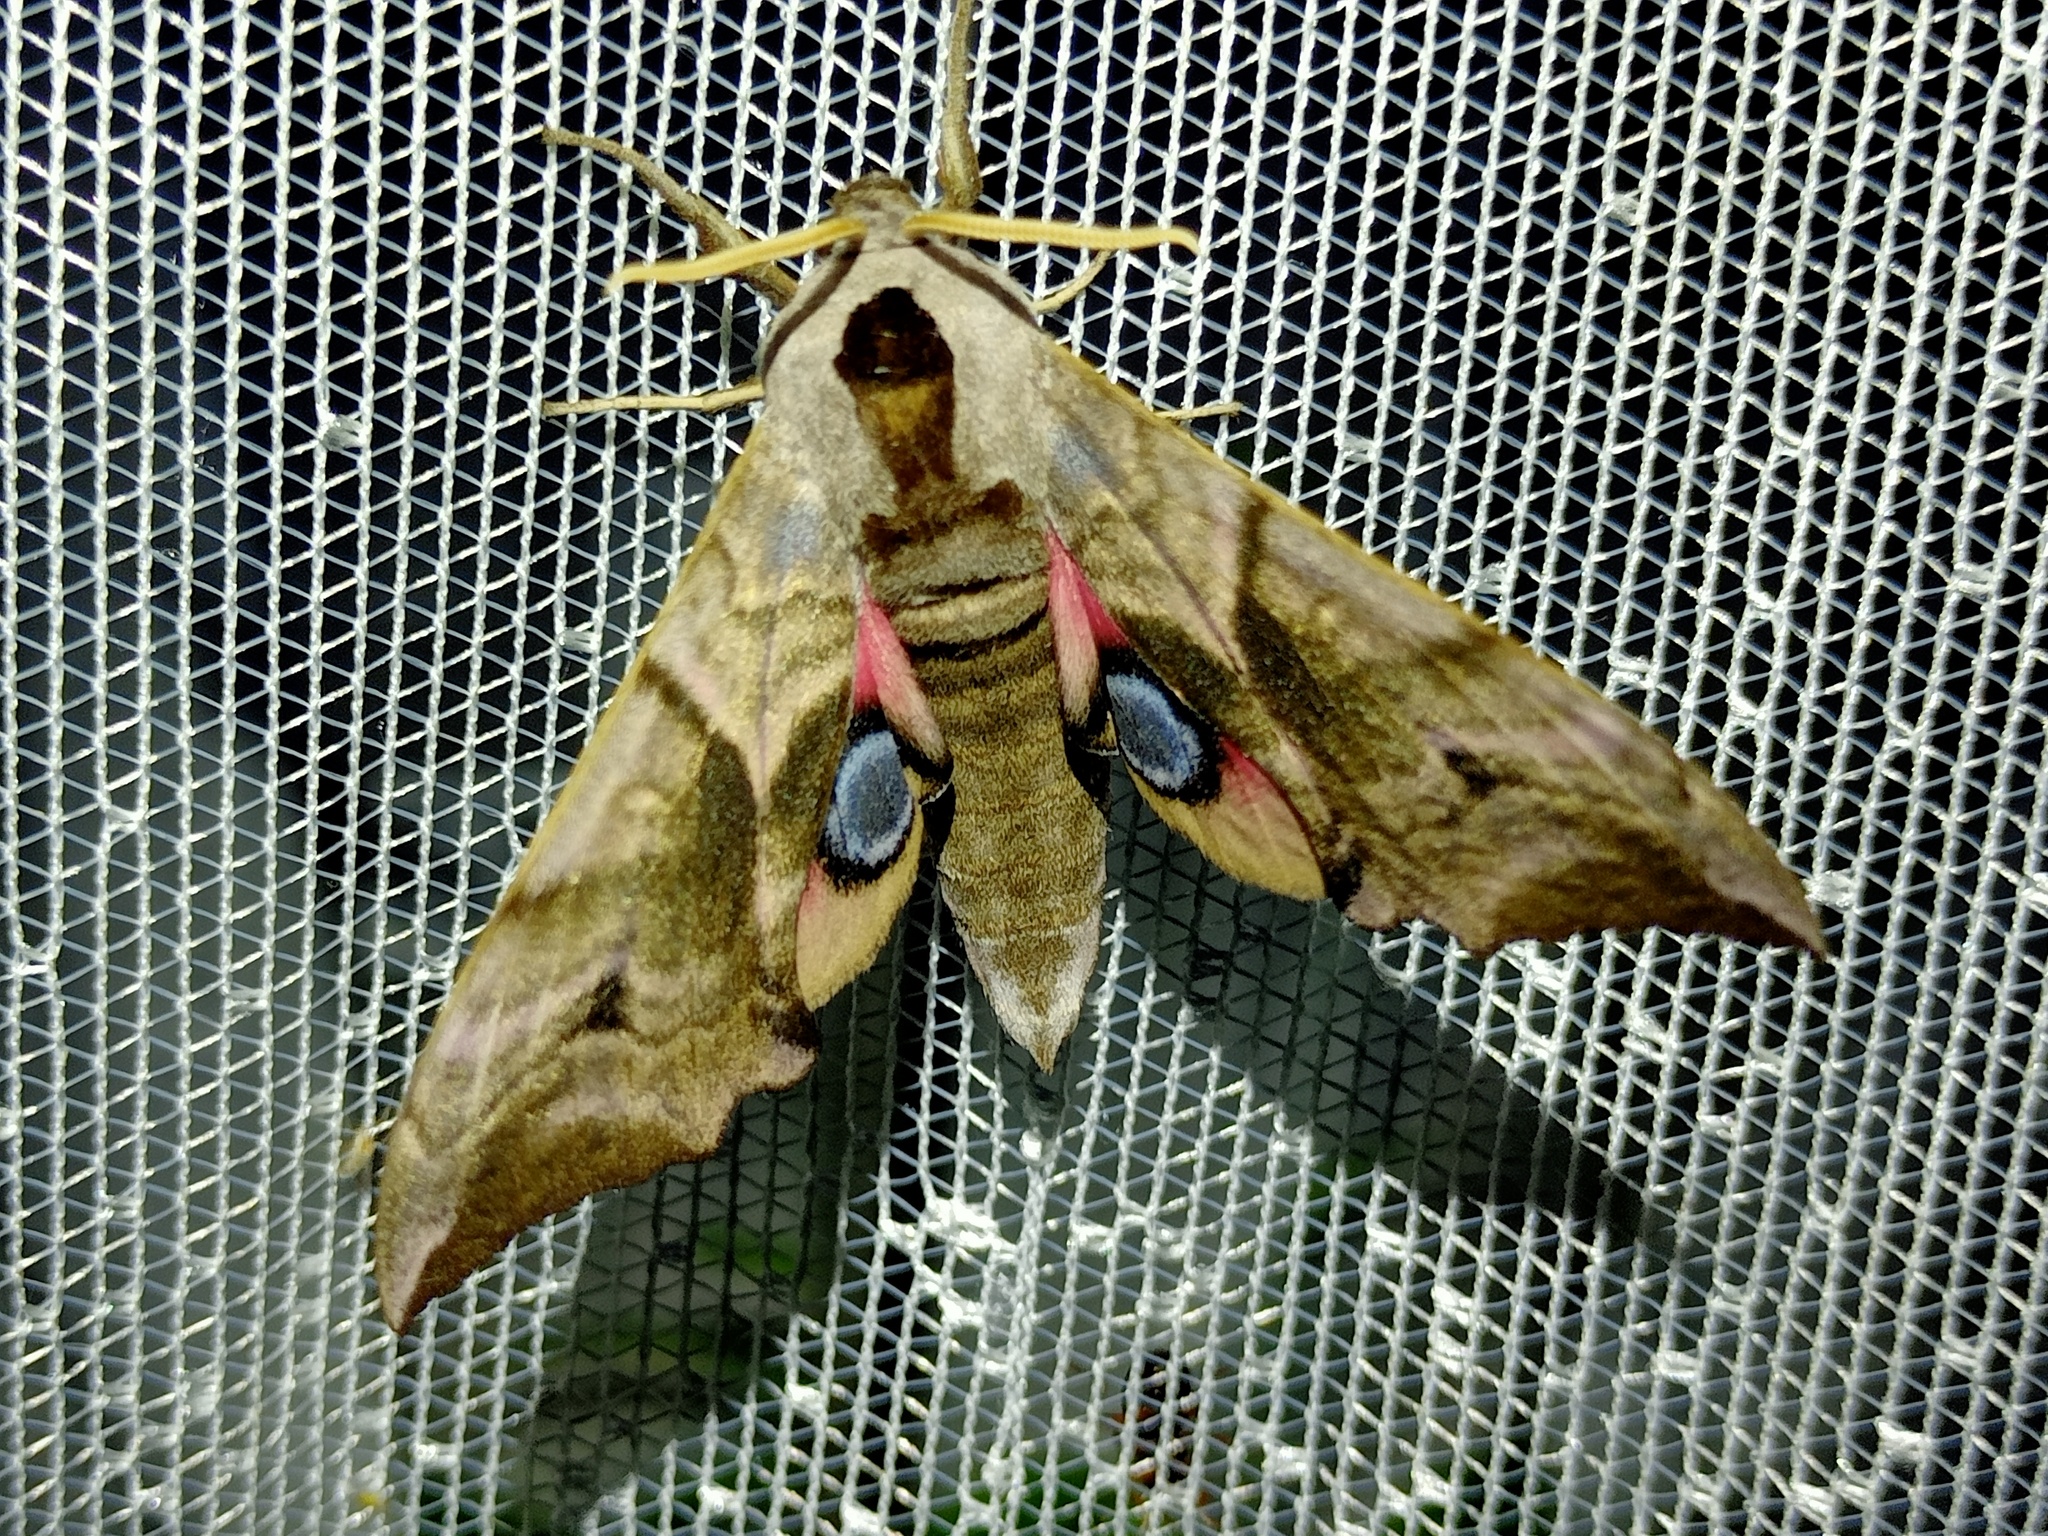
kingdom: Animalia
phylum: Arthropoda
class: Insecta
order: Lepidoptera
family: Sphingidae
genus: Smerinthus
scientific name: Smerinthus ocellata
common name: Eyed hawk-moth
